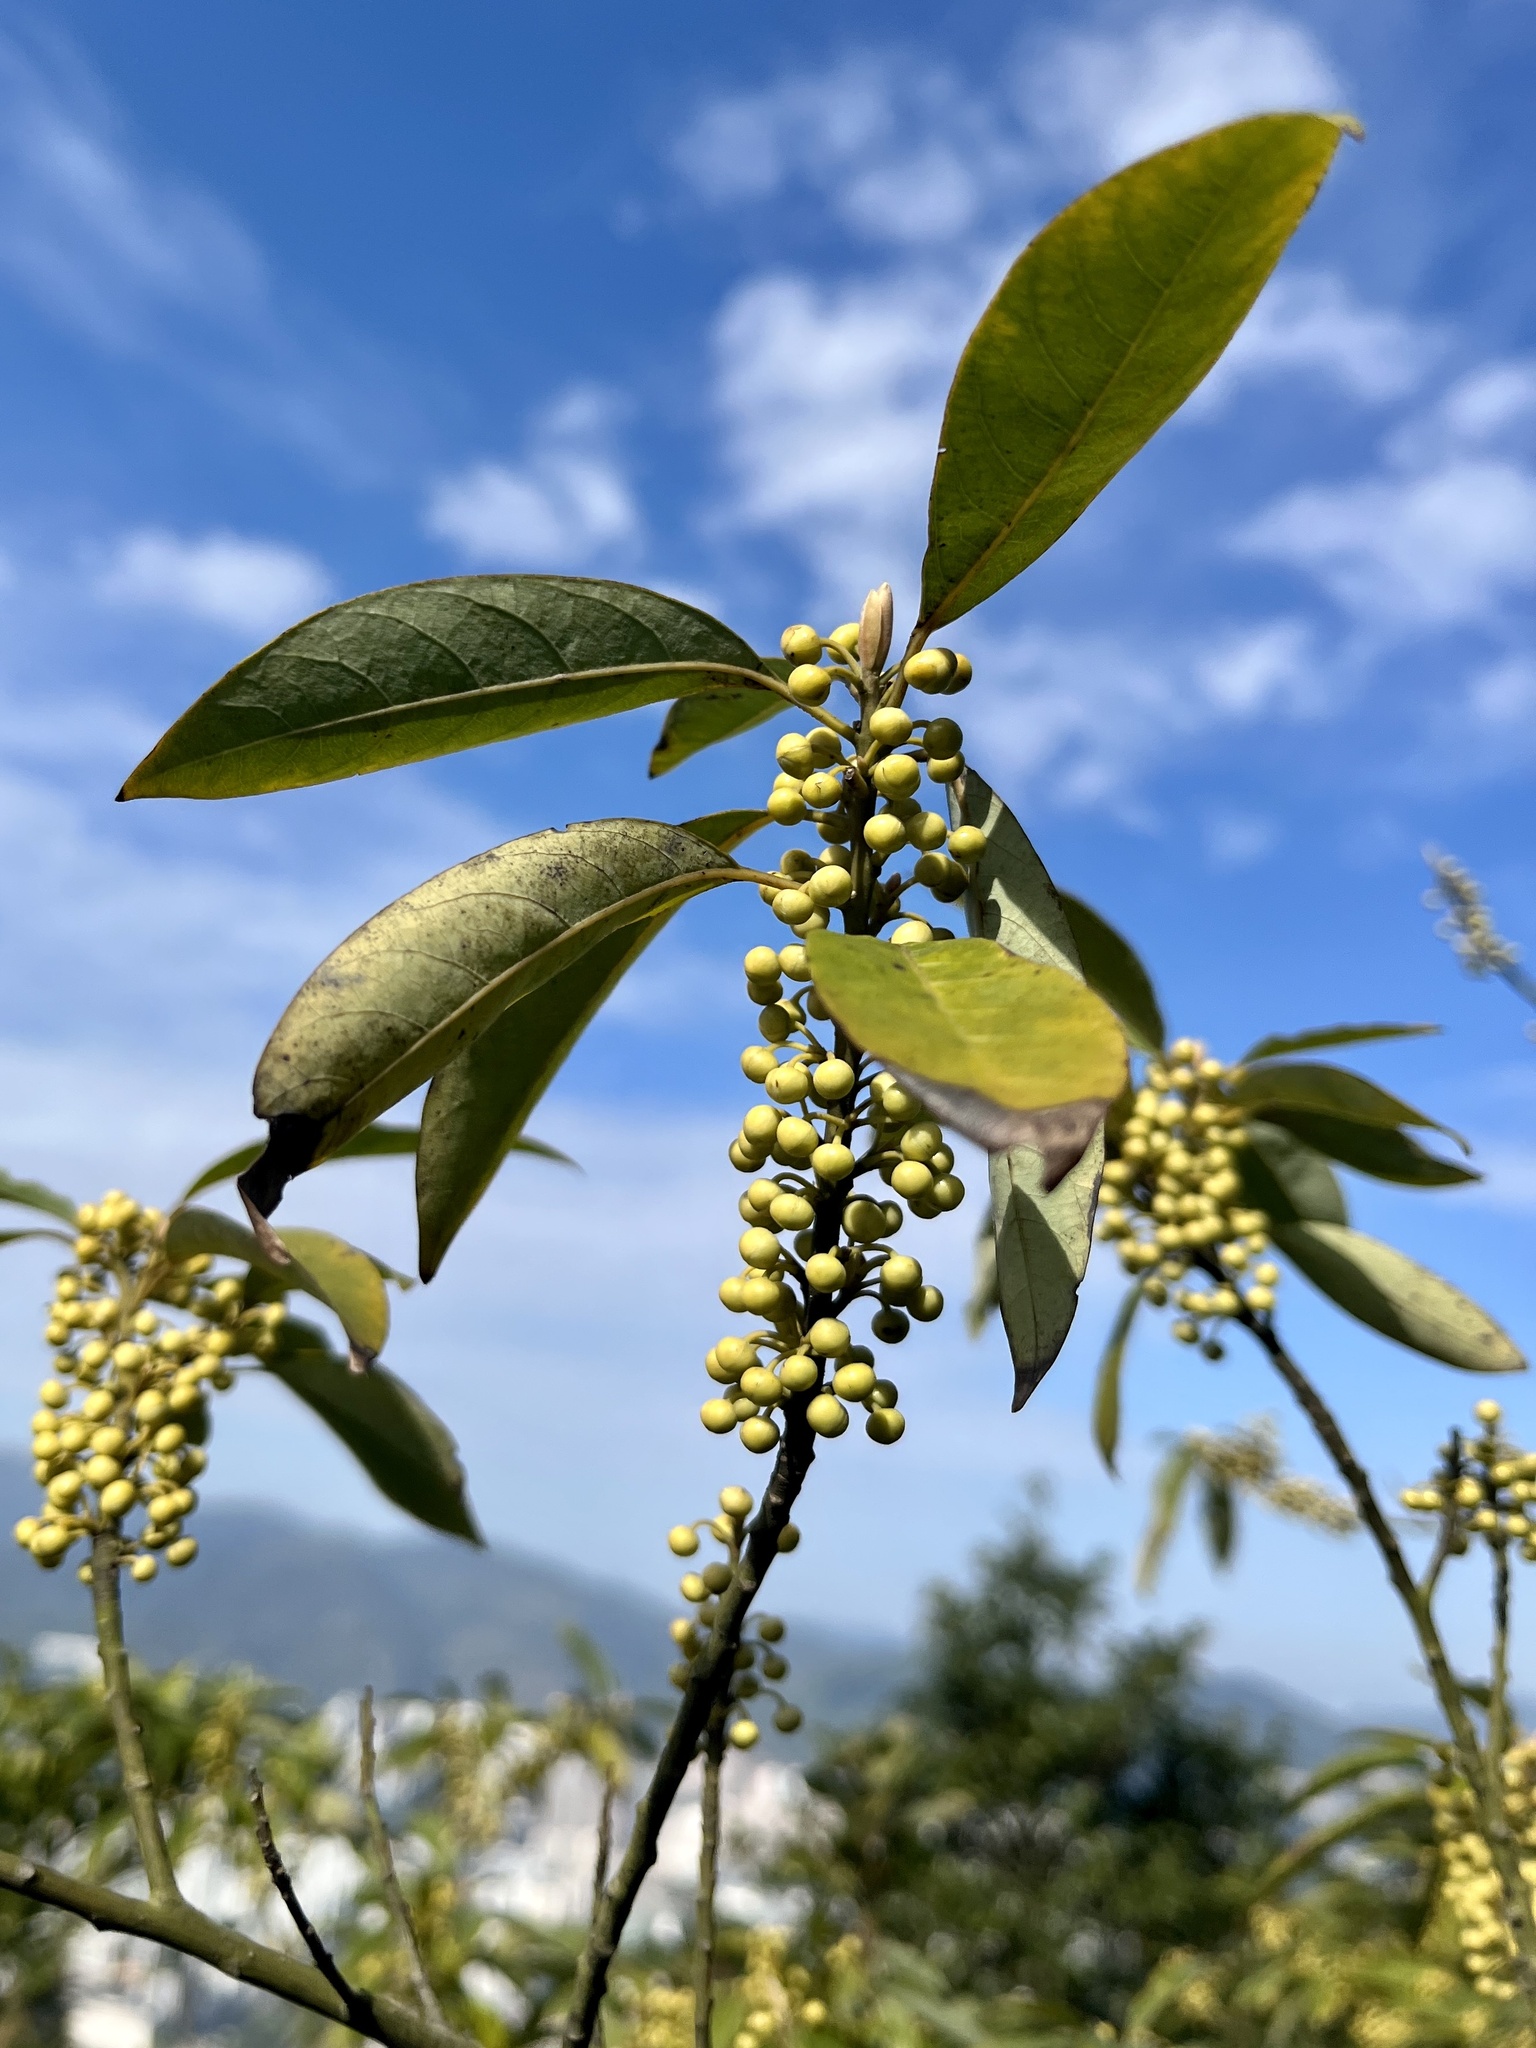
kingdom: Plantae
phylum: Tracheophyta
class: Magnoliopsida
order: Laurales
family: Lauraceae
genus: Litsea
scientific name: Litsea cubeba
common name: Mountain-pepper
